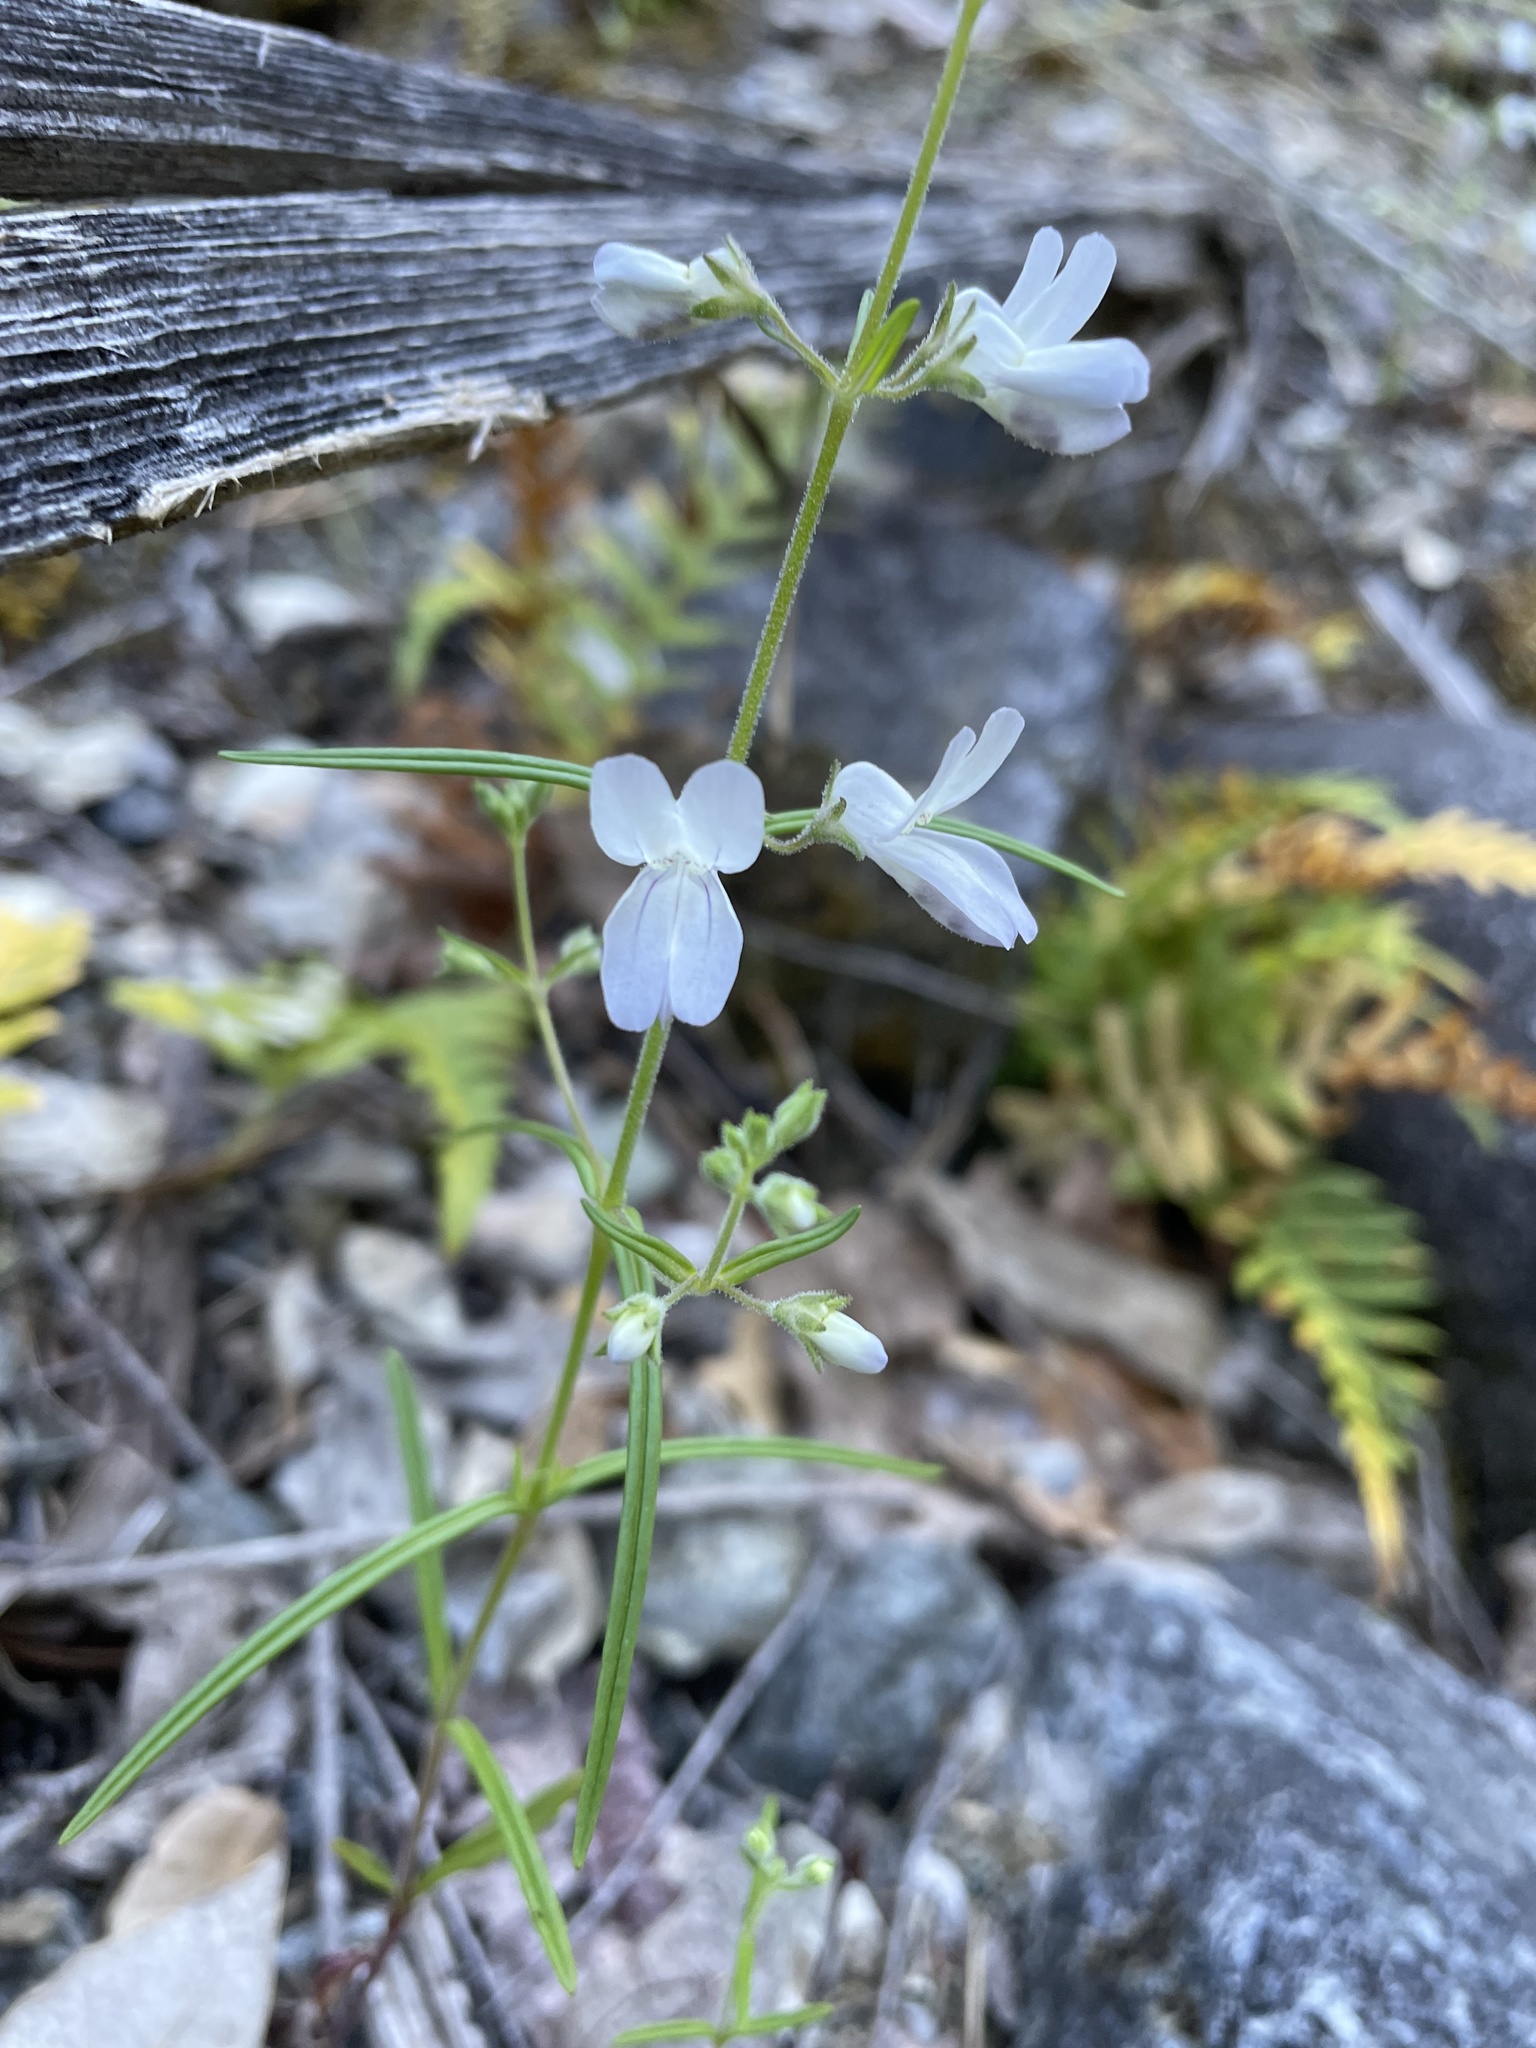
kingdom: Plantae
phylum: Tracheophyta
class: Magnoliopsida
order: Lamiales
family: Plantaginaceae
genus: Collinsia
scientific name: Collinsia linearis
